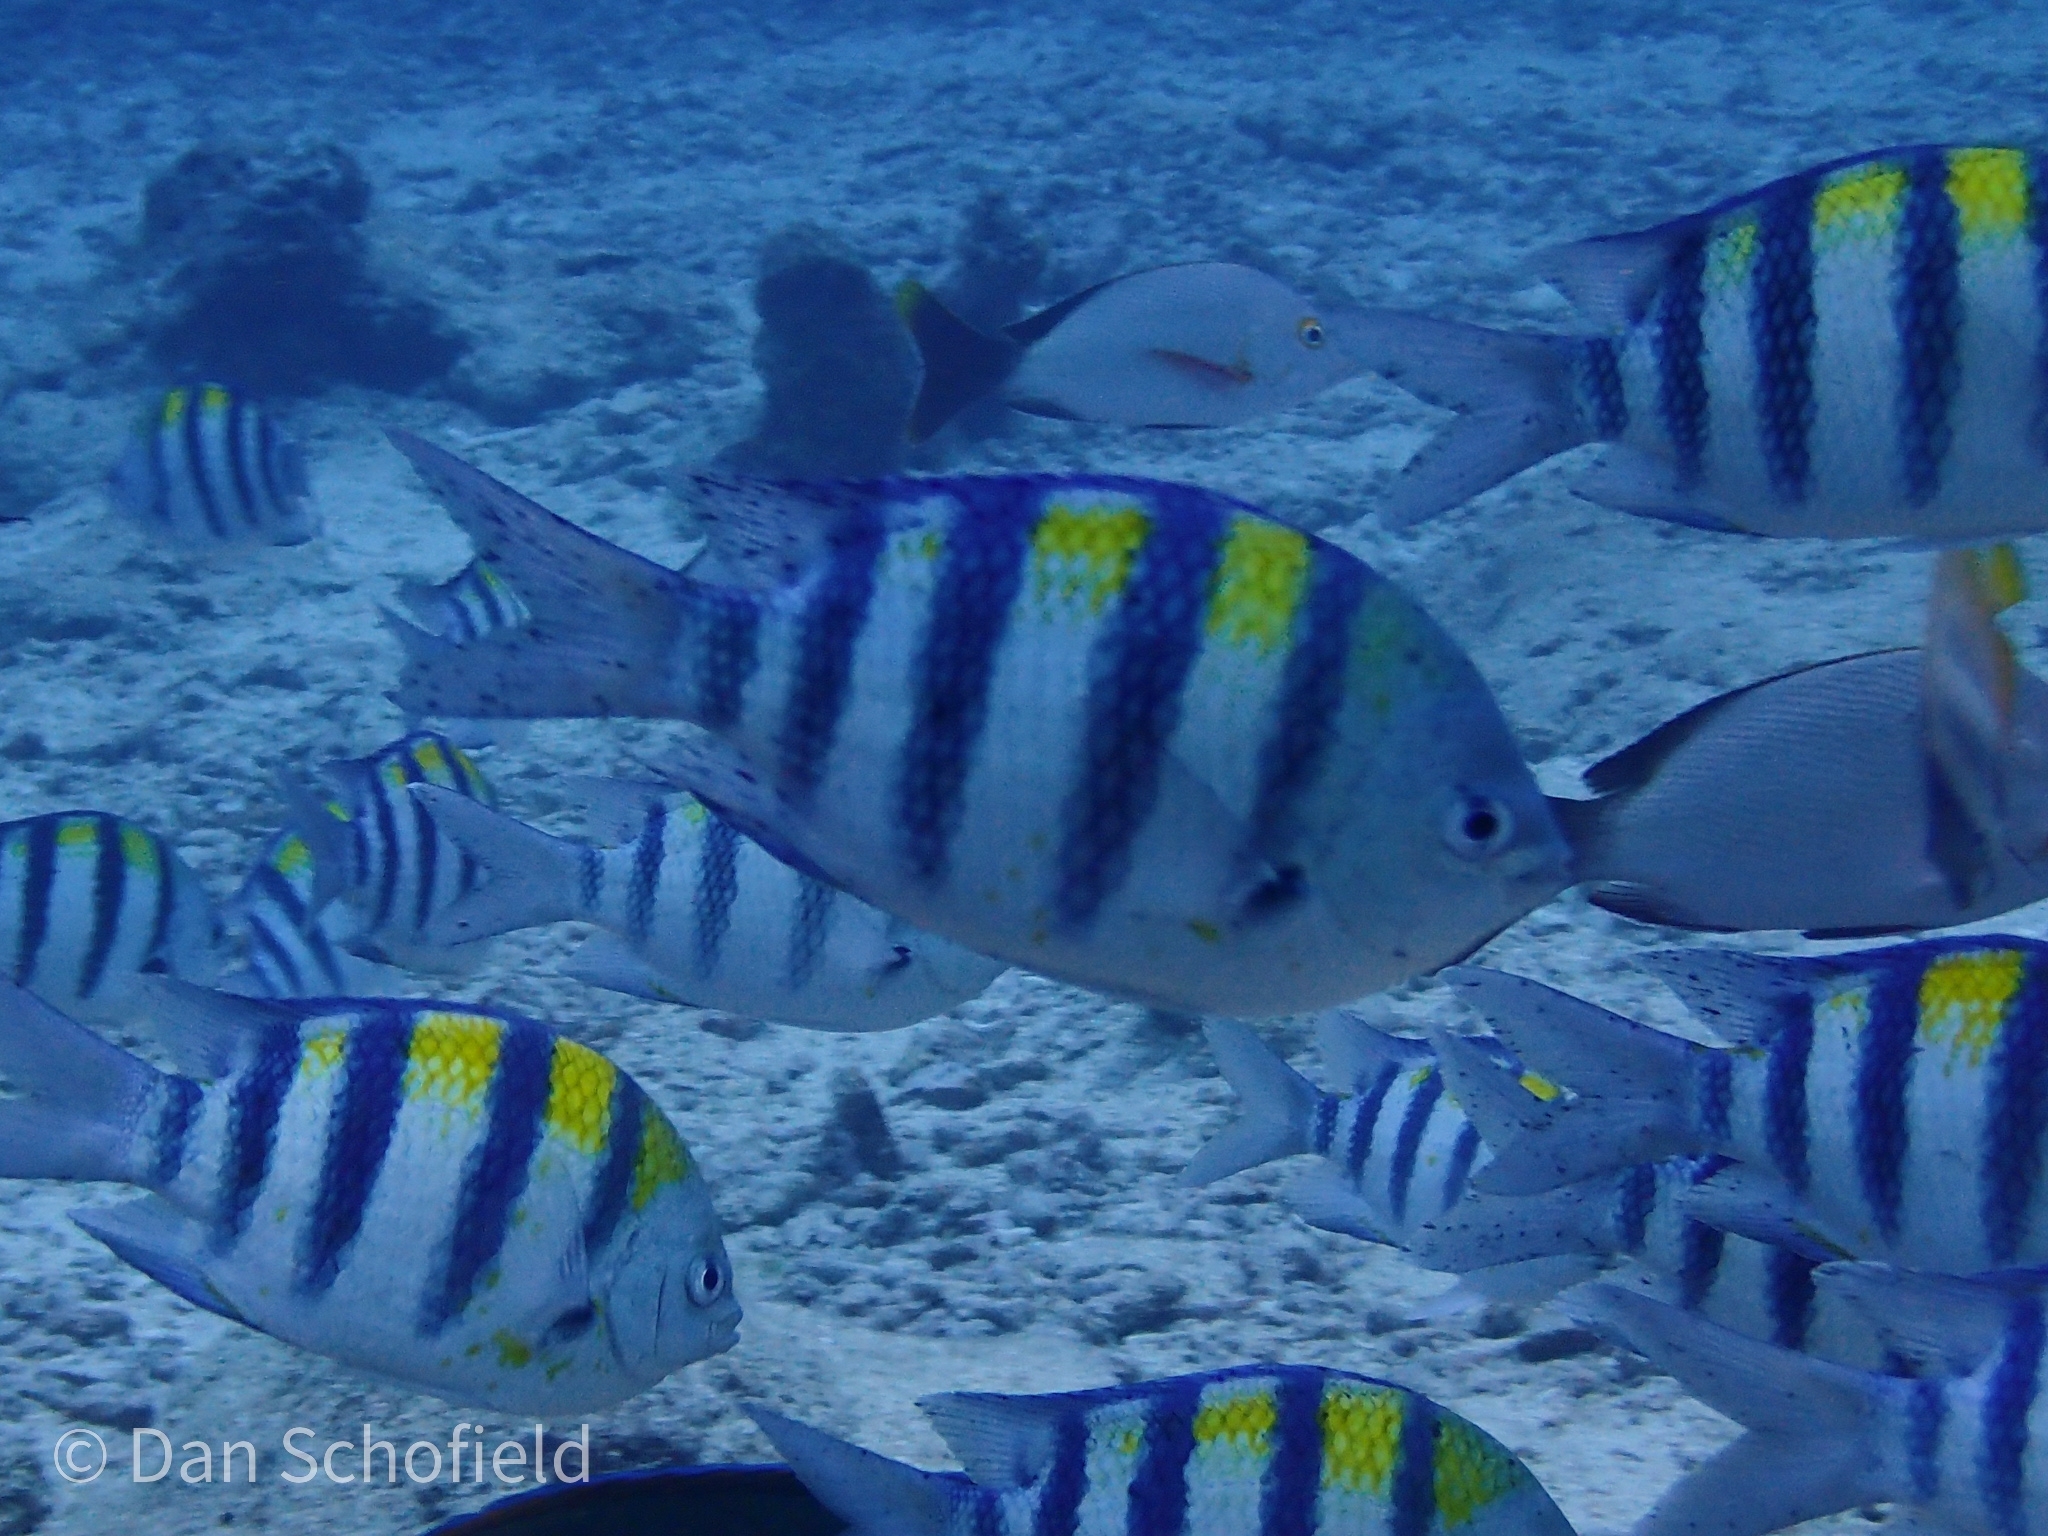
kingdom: Animalia
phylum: Chordata
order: Perciformes
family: Pomacentridae
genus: Abudefduf
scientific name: Abudefduf vaigiensis
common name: Indo-pacific sergeant
